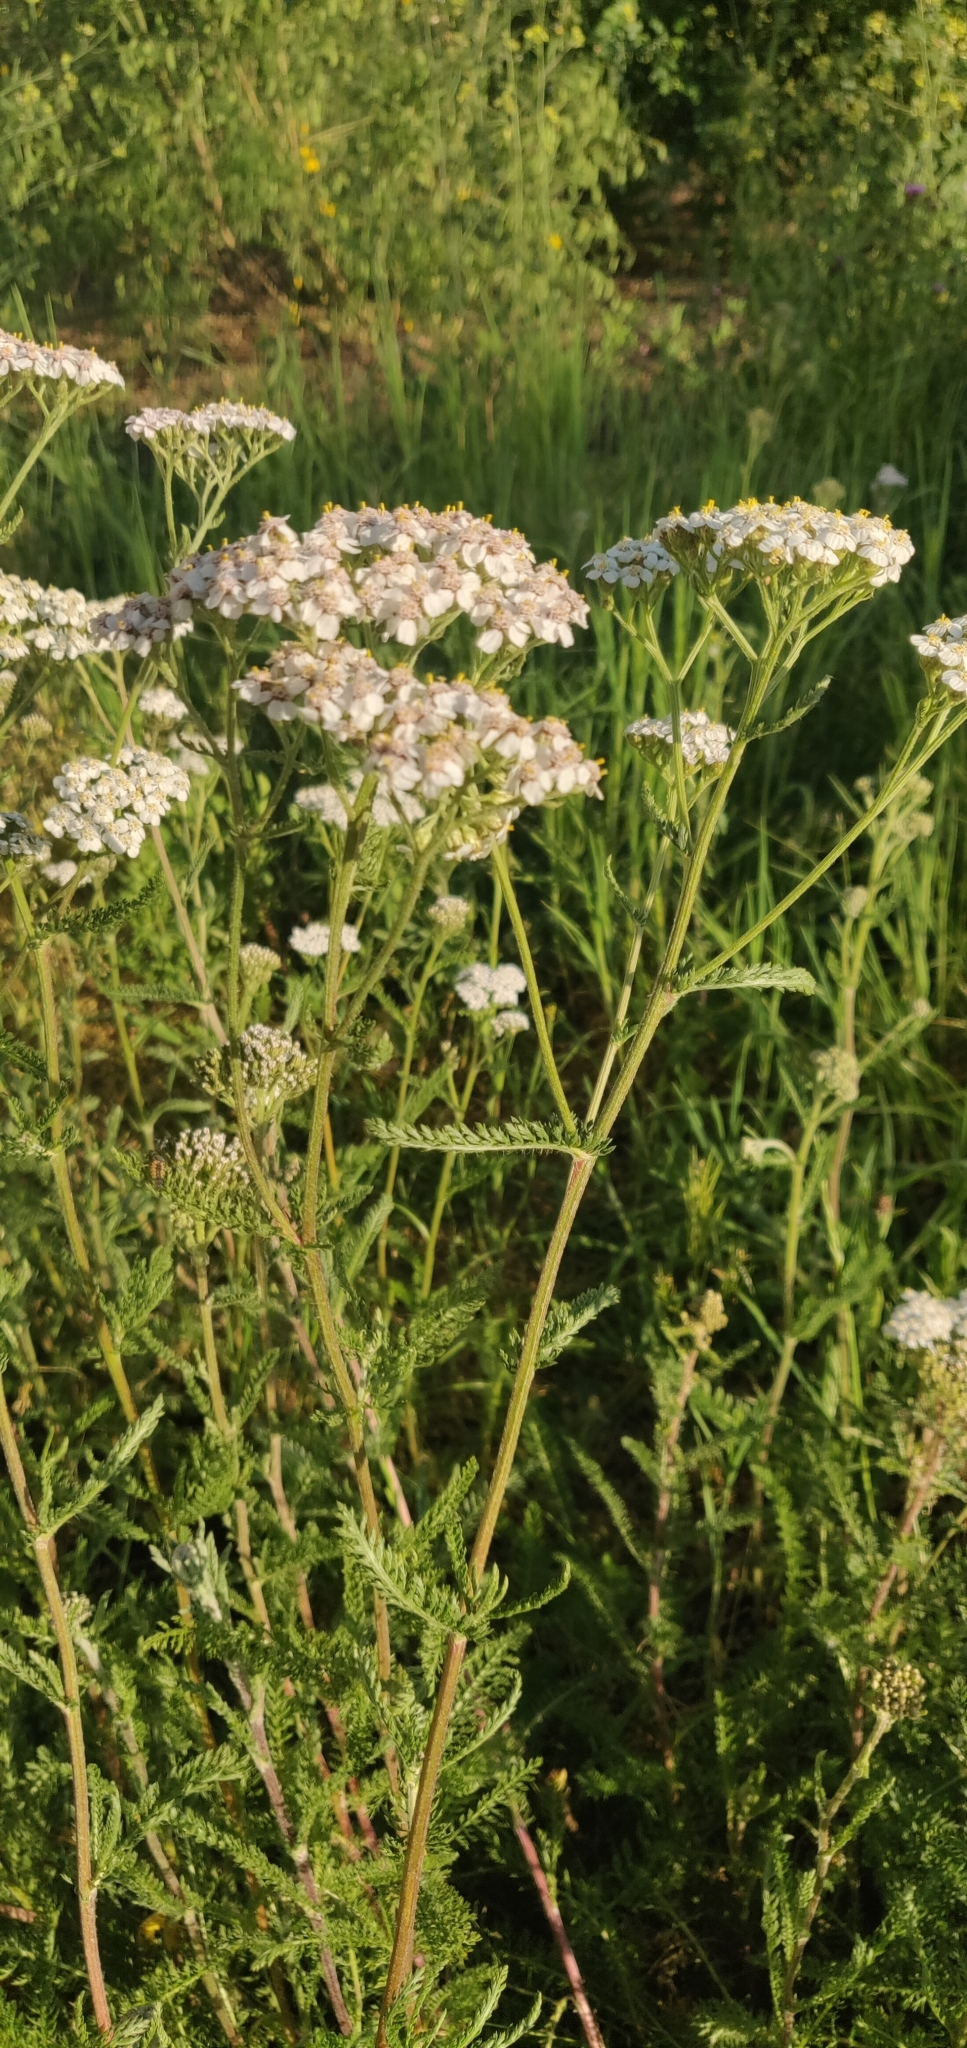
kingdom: Plantae
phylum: Tracheophyta
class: Magnoliopsida
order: Asterales
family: Asteraceae
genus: Achillea
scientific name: Achillea millefolium
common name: Yarrow
